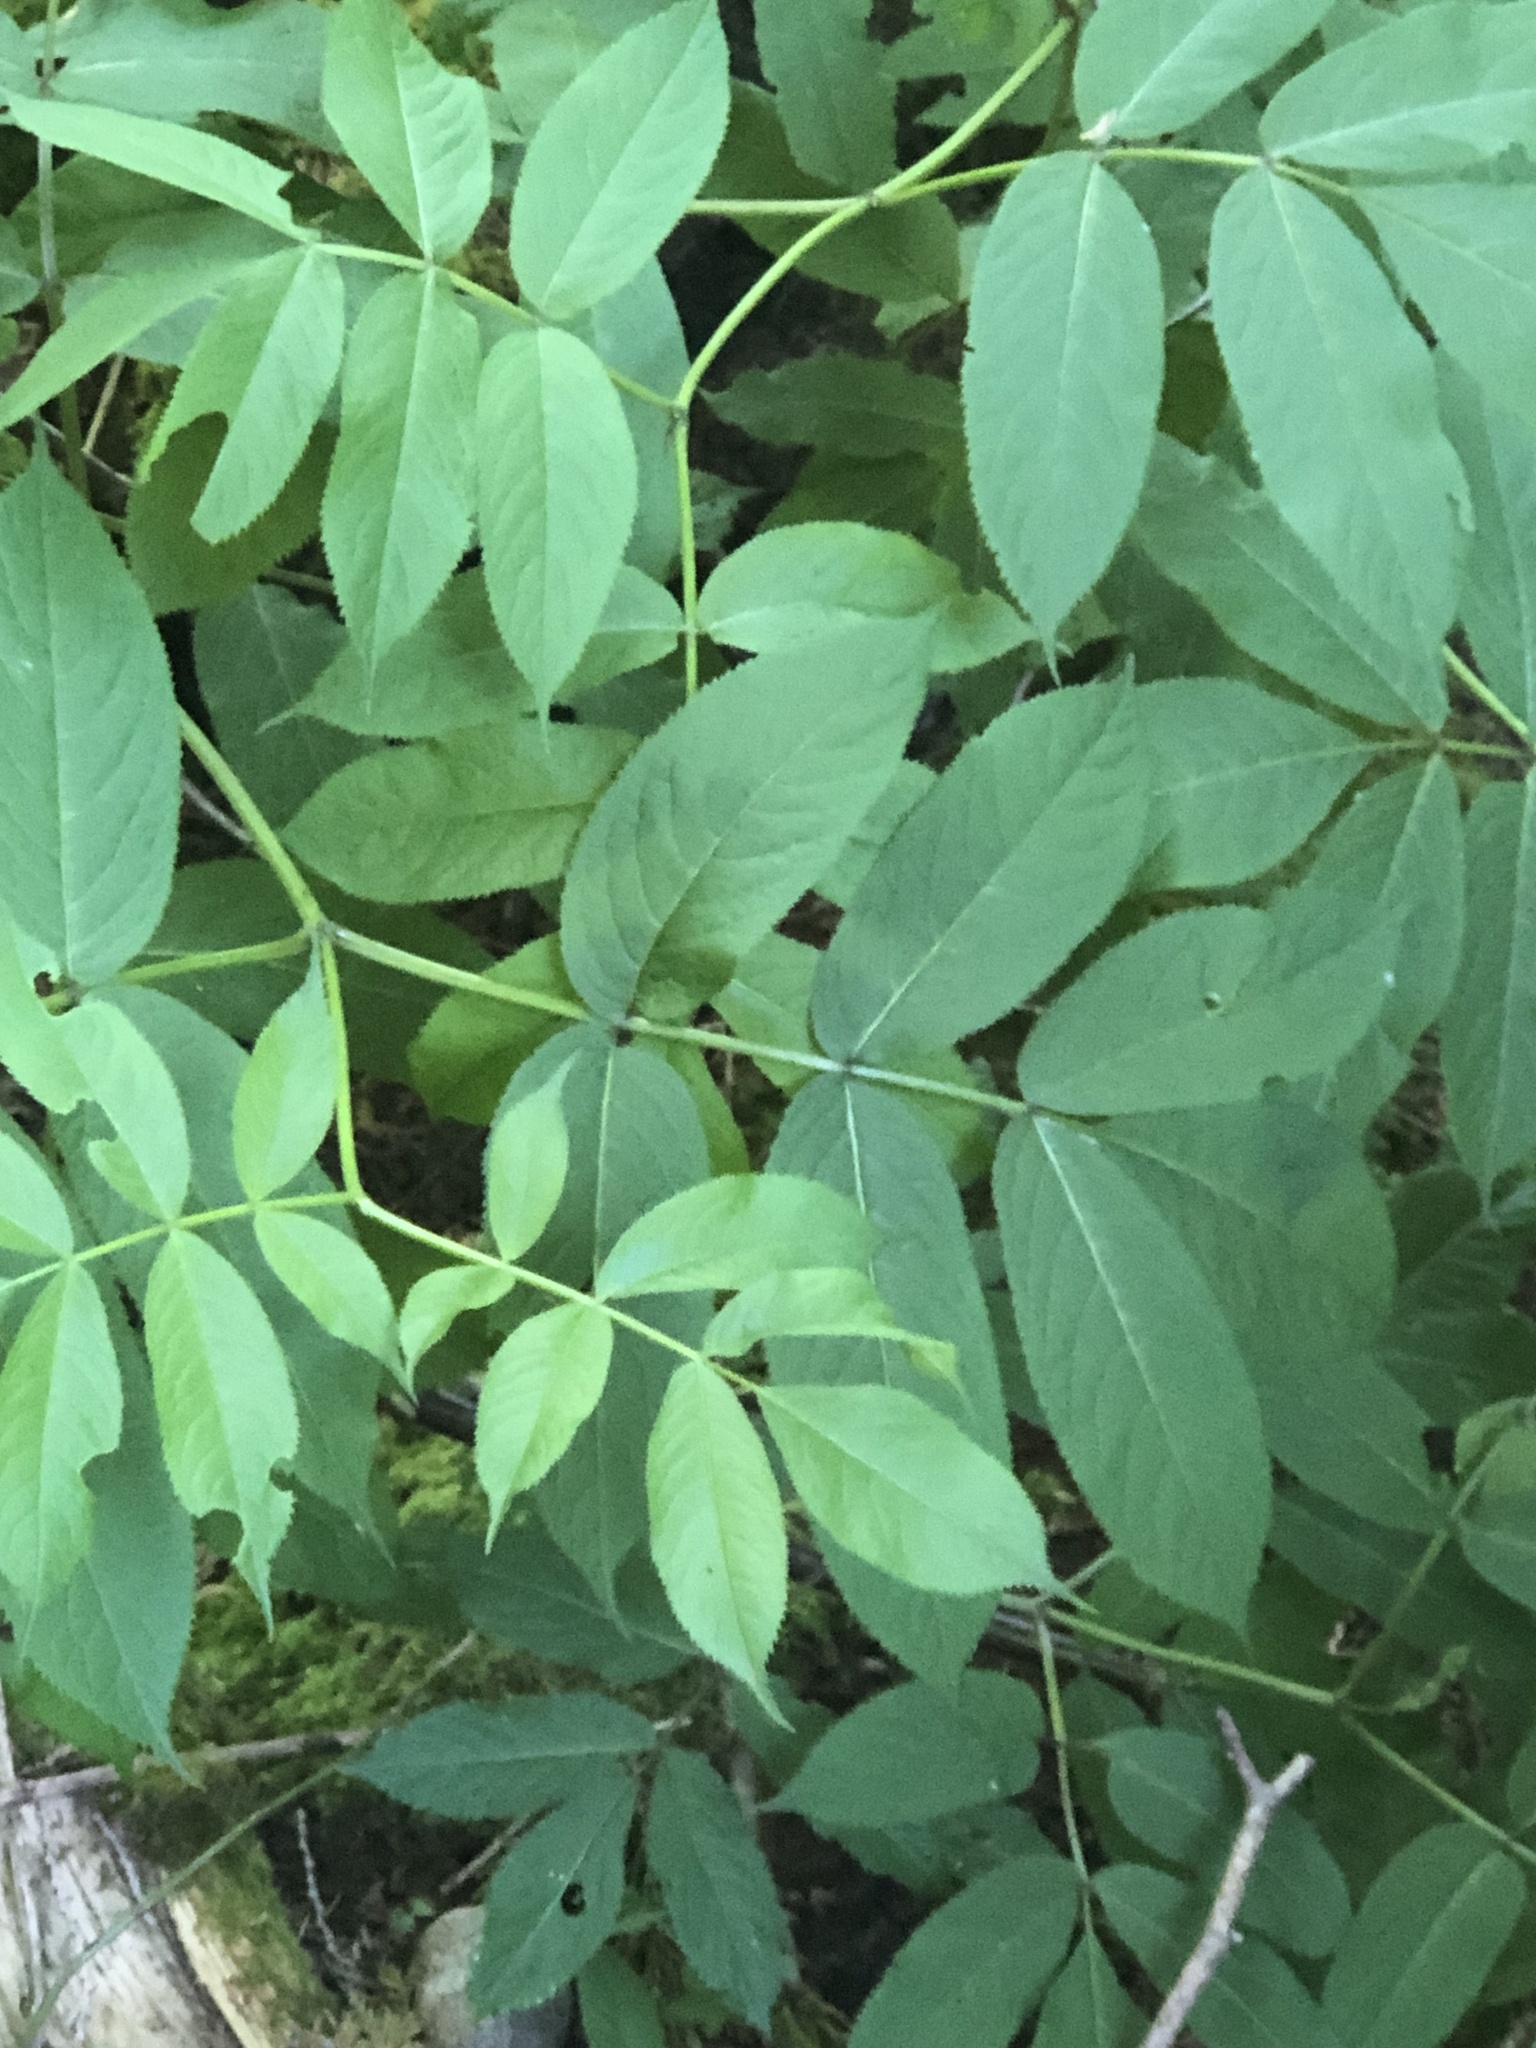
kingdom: Plantae
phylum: Tracheophyta
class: Magnoliopsida
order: Dipsacales
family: Viburnaceae
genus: Sambucus
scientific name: Sambucus racemosa
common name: Red-berried elder
